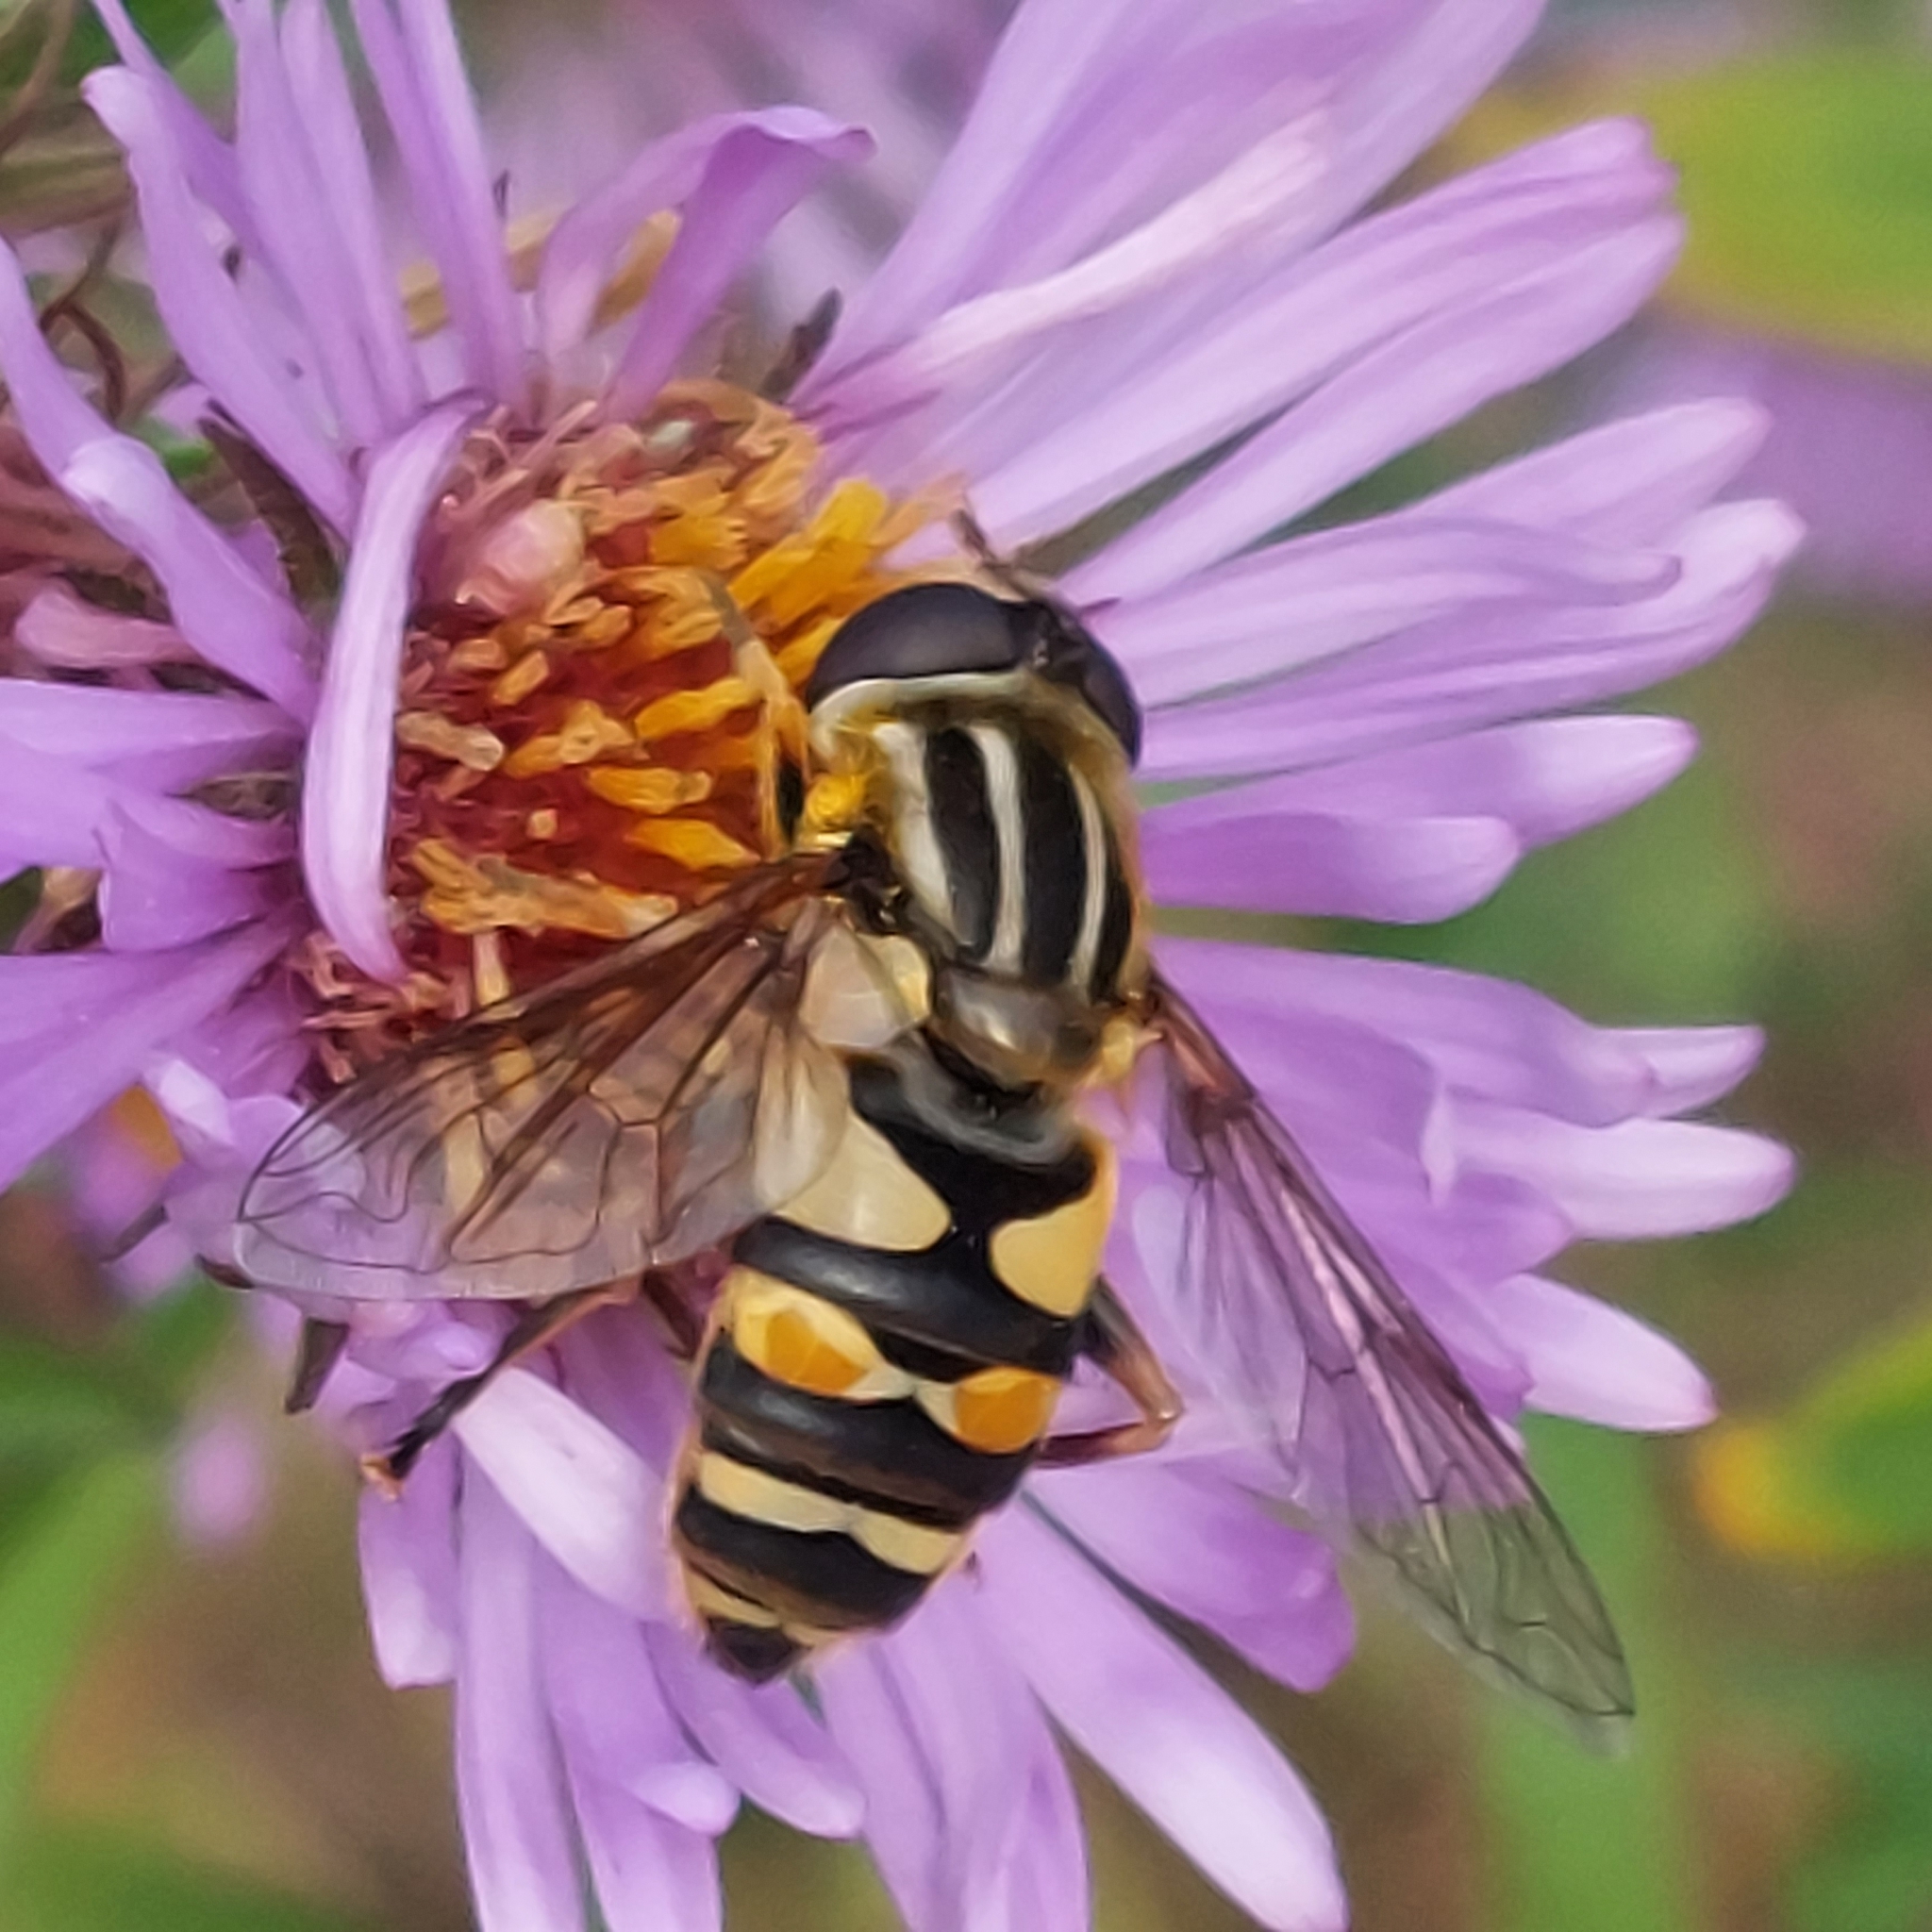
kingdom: Animalia
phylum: Arthropoda
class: Insecta
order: Diptera
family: Syrphidae
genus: Helophilus
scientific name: Helophilus fasciatus
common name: Narrow-headed marsh fly
